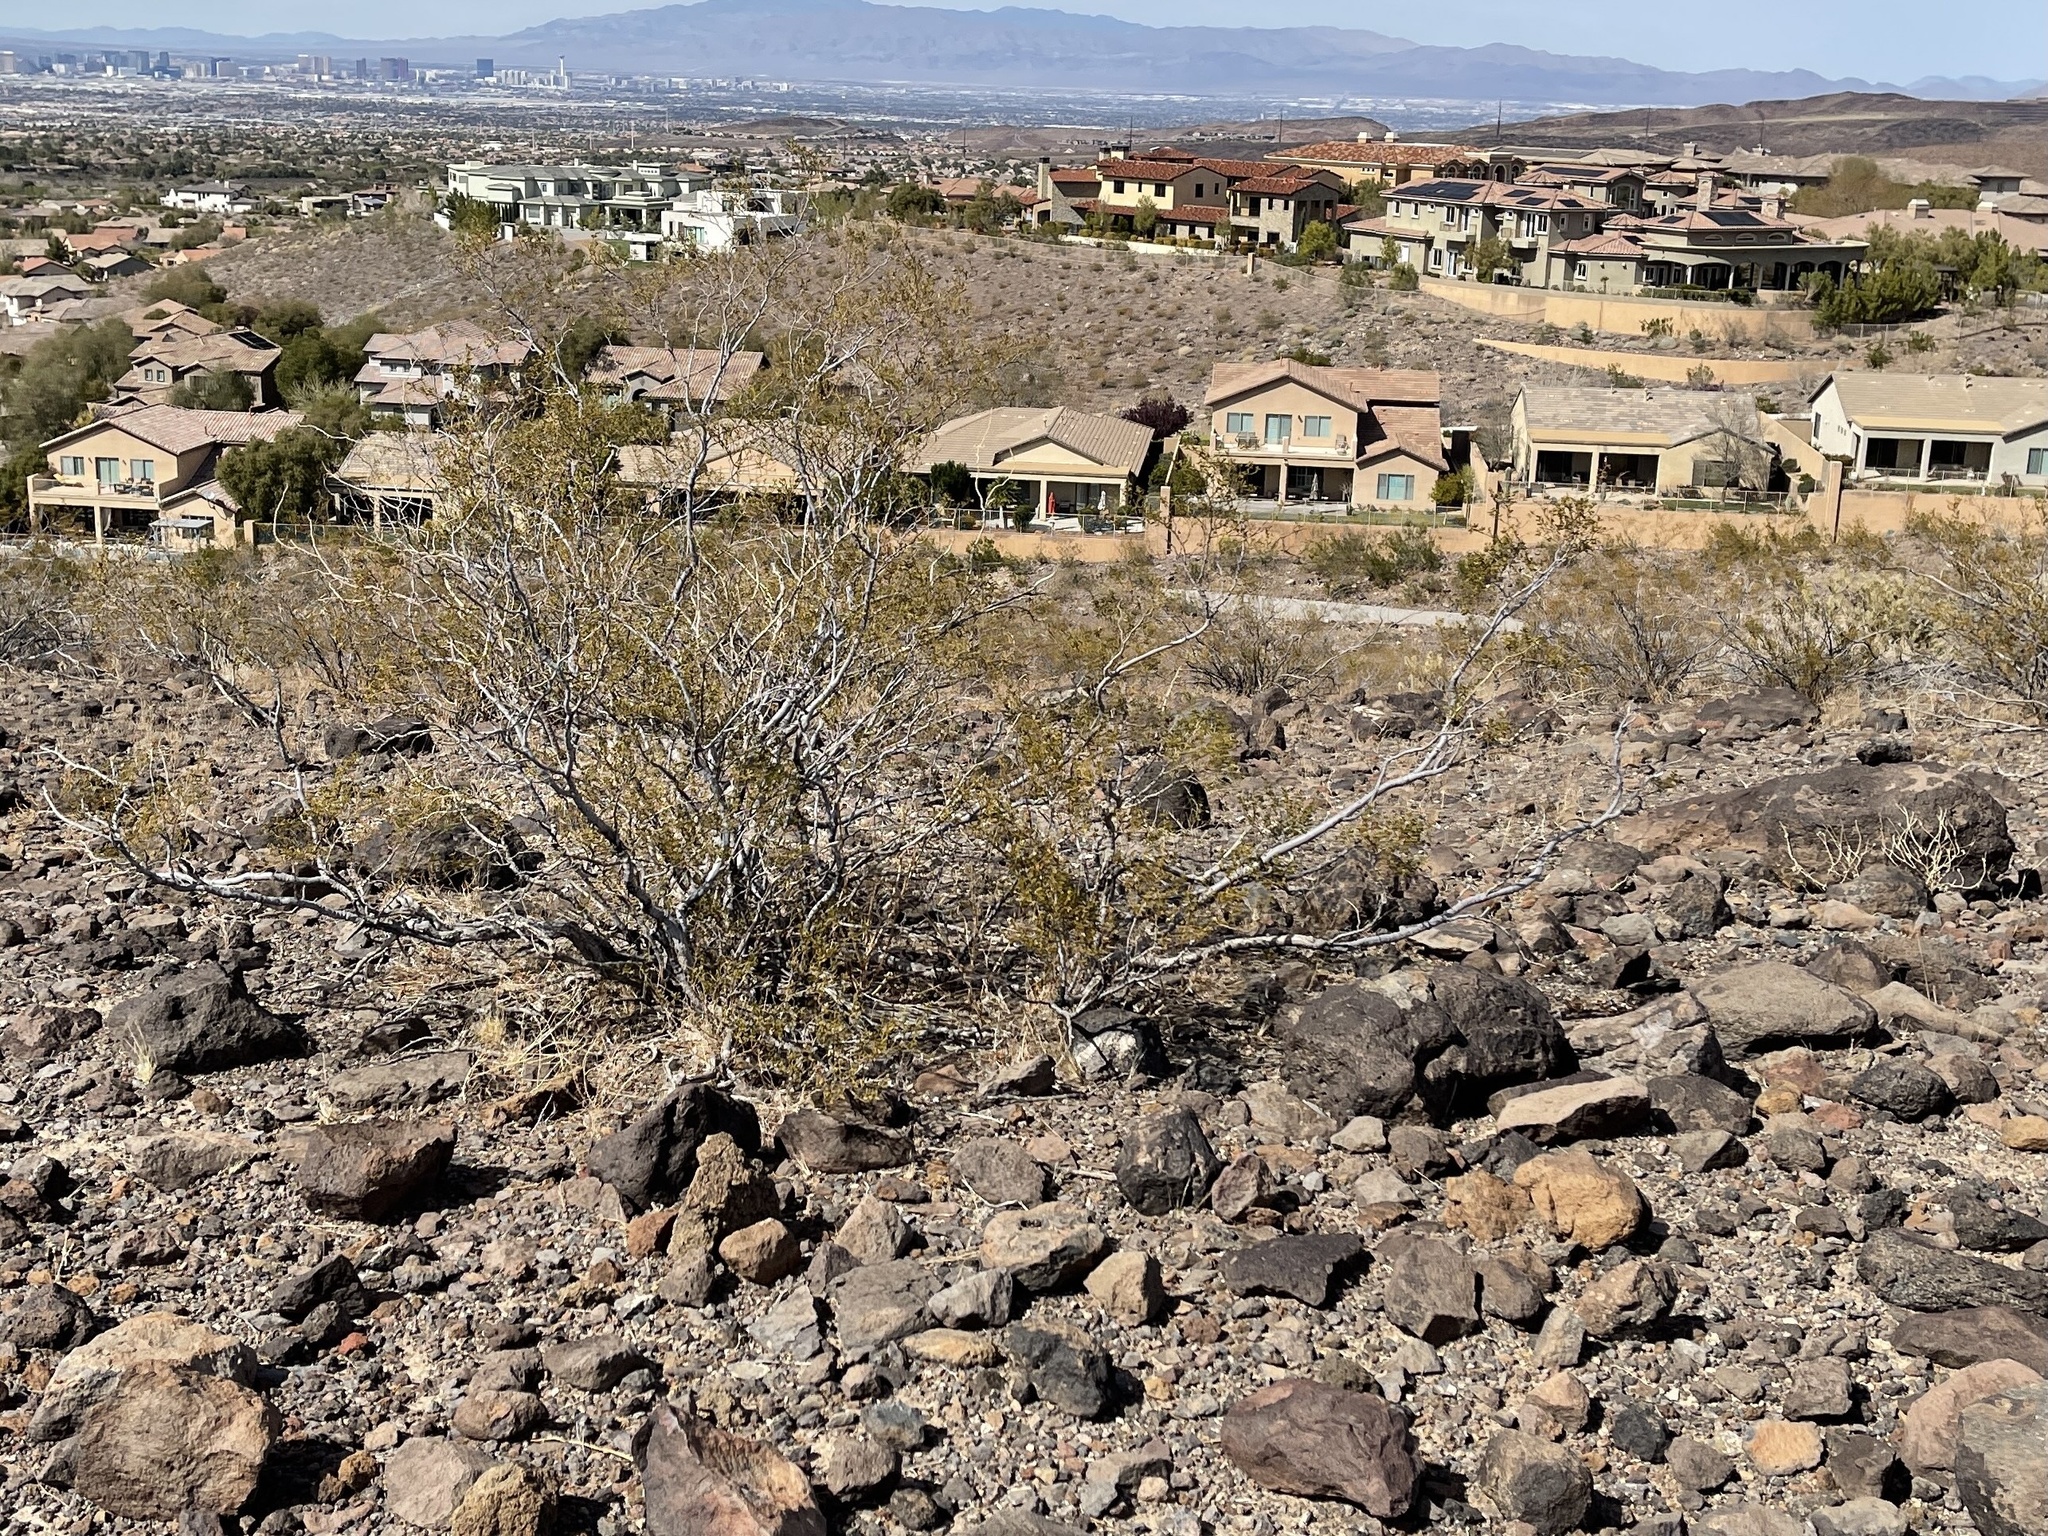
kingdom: Plantae
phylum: Tracheophyta
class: Magnoliopsida
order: Zygophyllales
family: Zygophyllaceae
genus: Larrea
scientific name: Larrea tridentata
